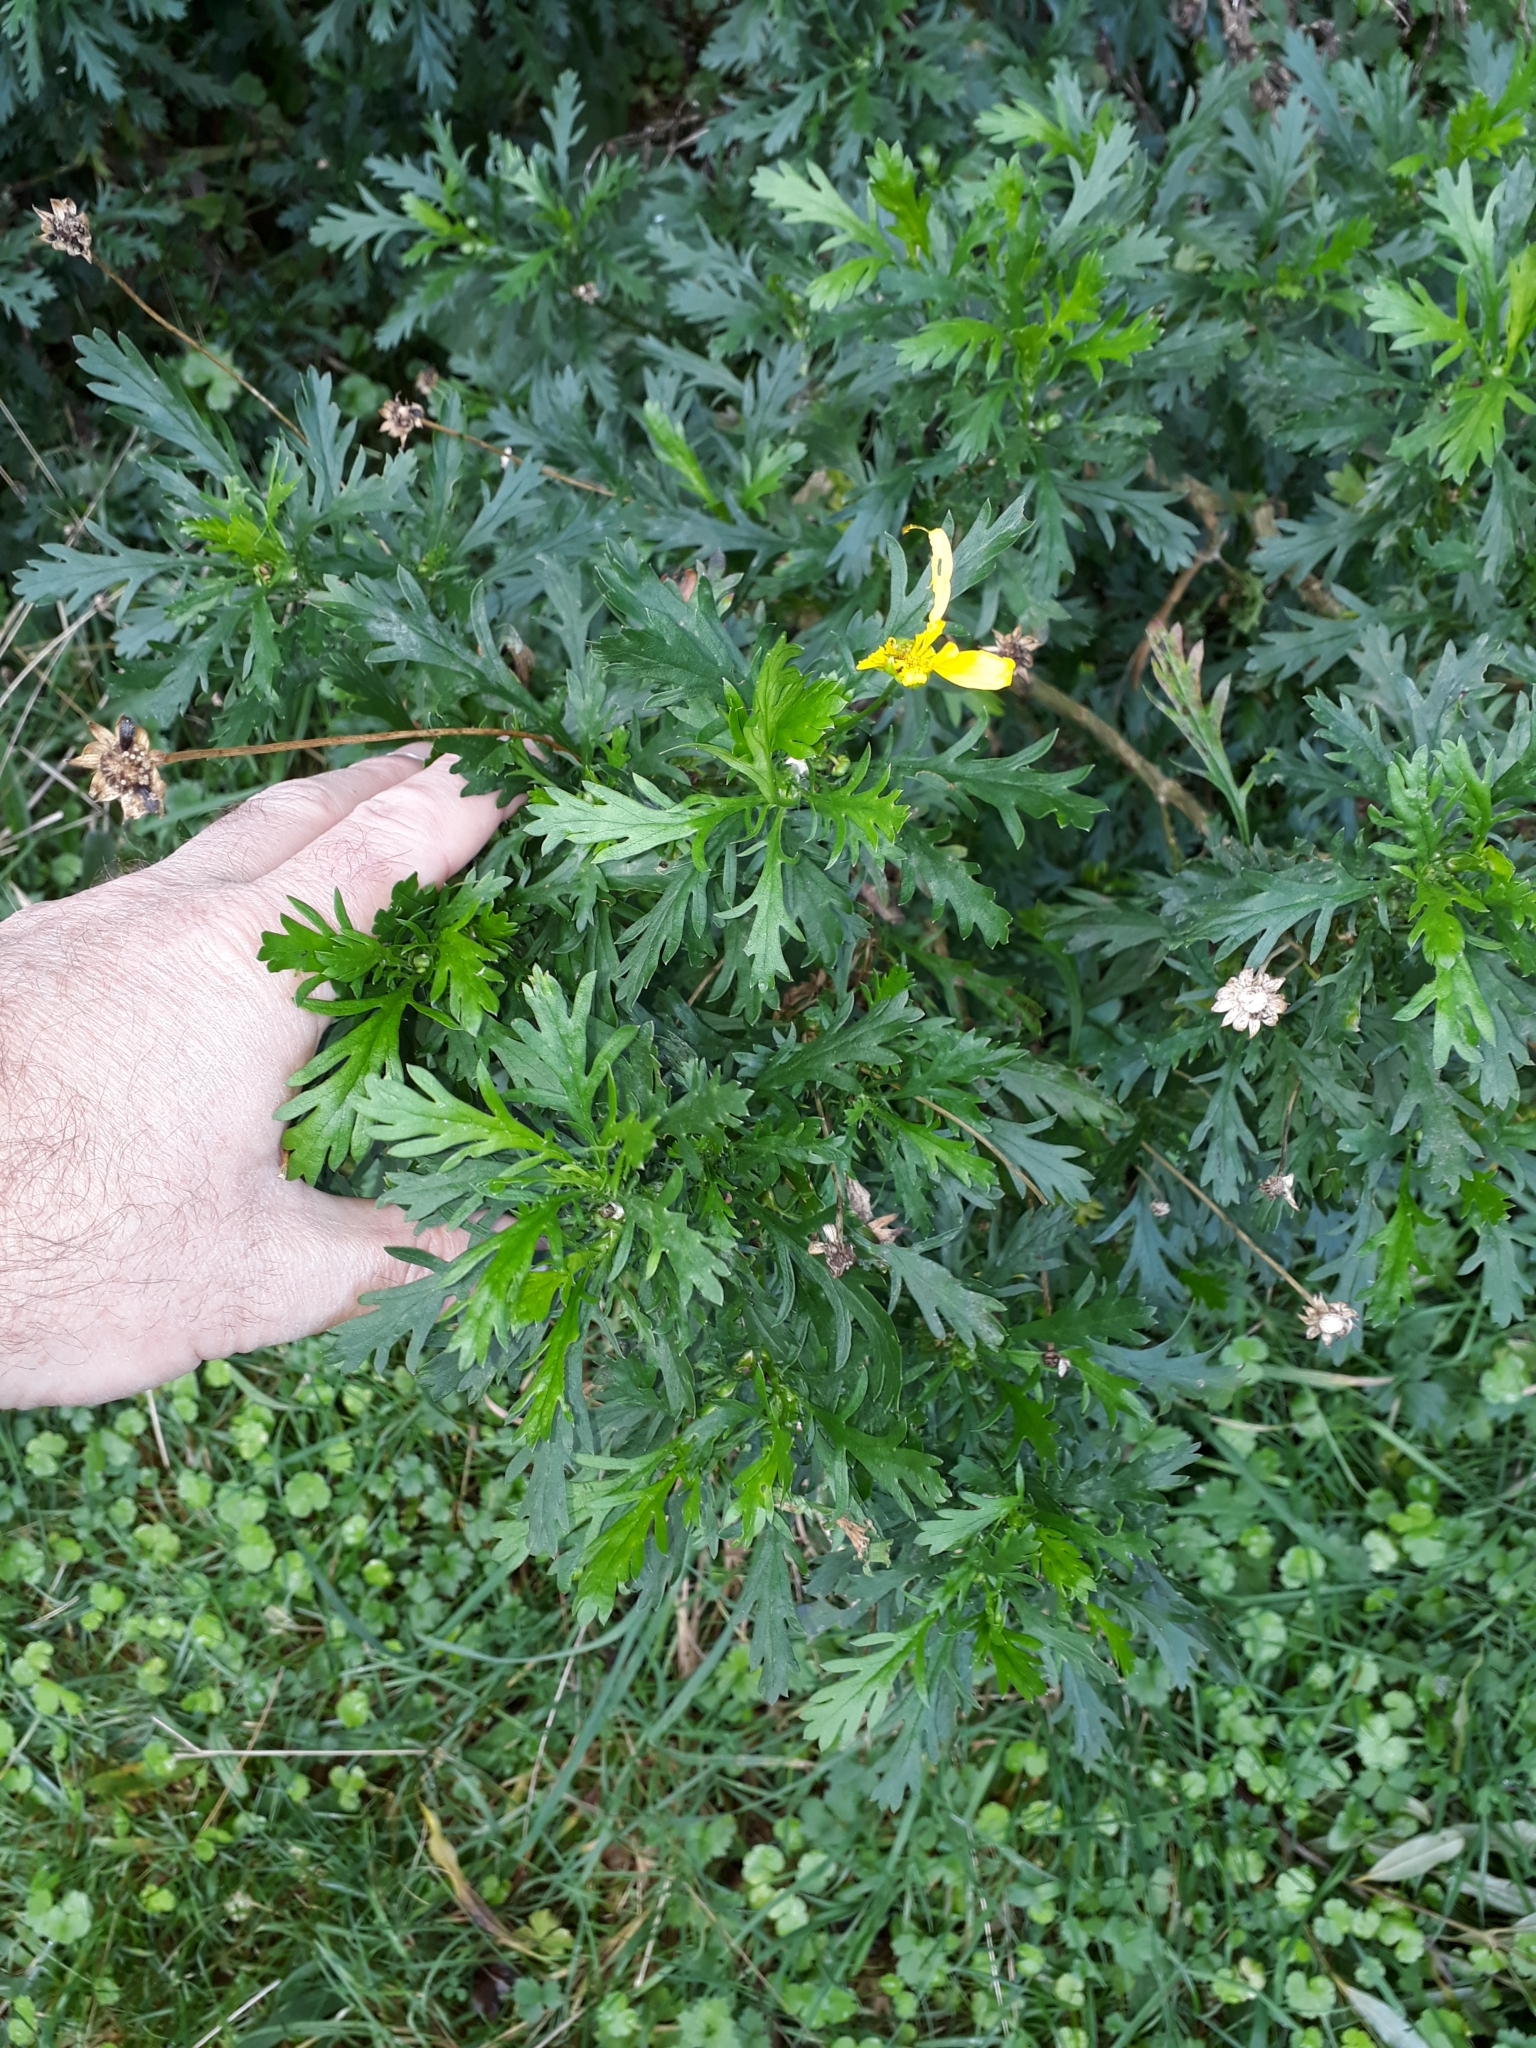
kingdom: Plantae
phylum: Tracheophyta
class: Magnoliopsida
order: Asterales
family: Asteraceae
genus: Euryops
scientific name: Euryops chrysanthemoides
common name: Bull's eye
